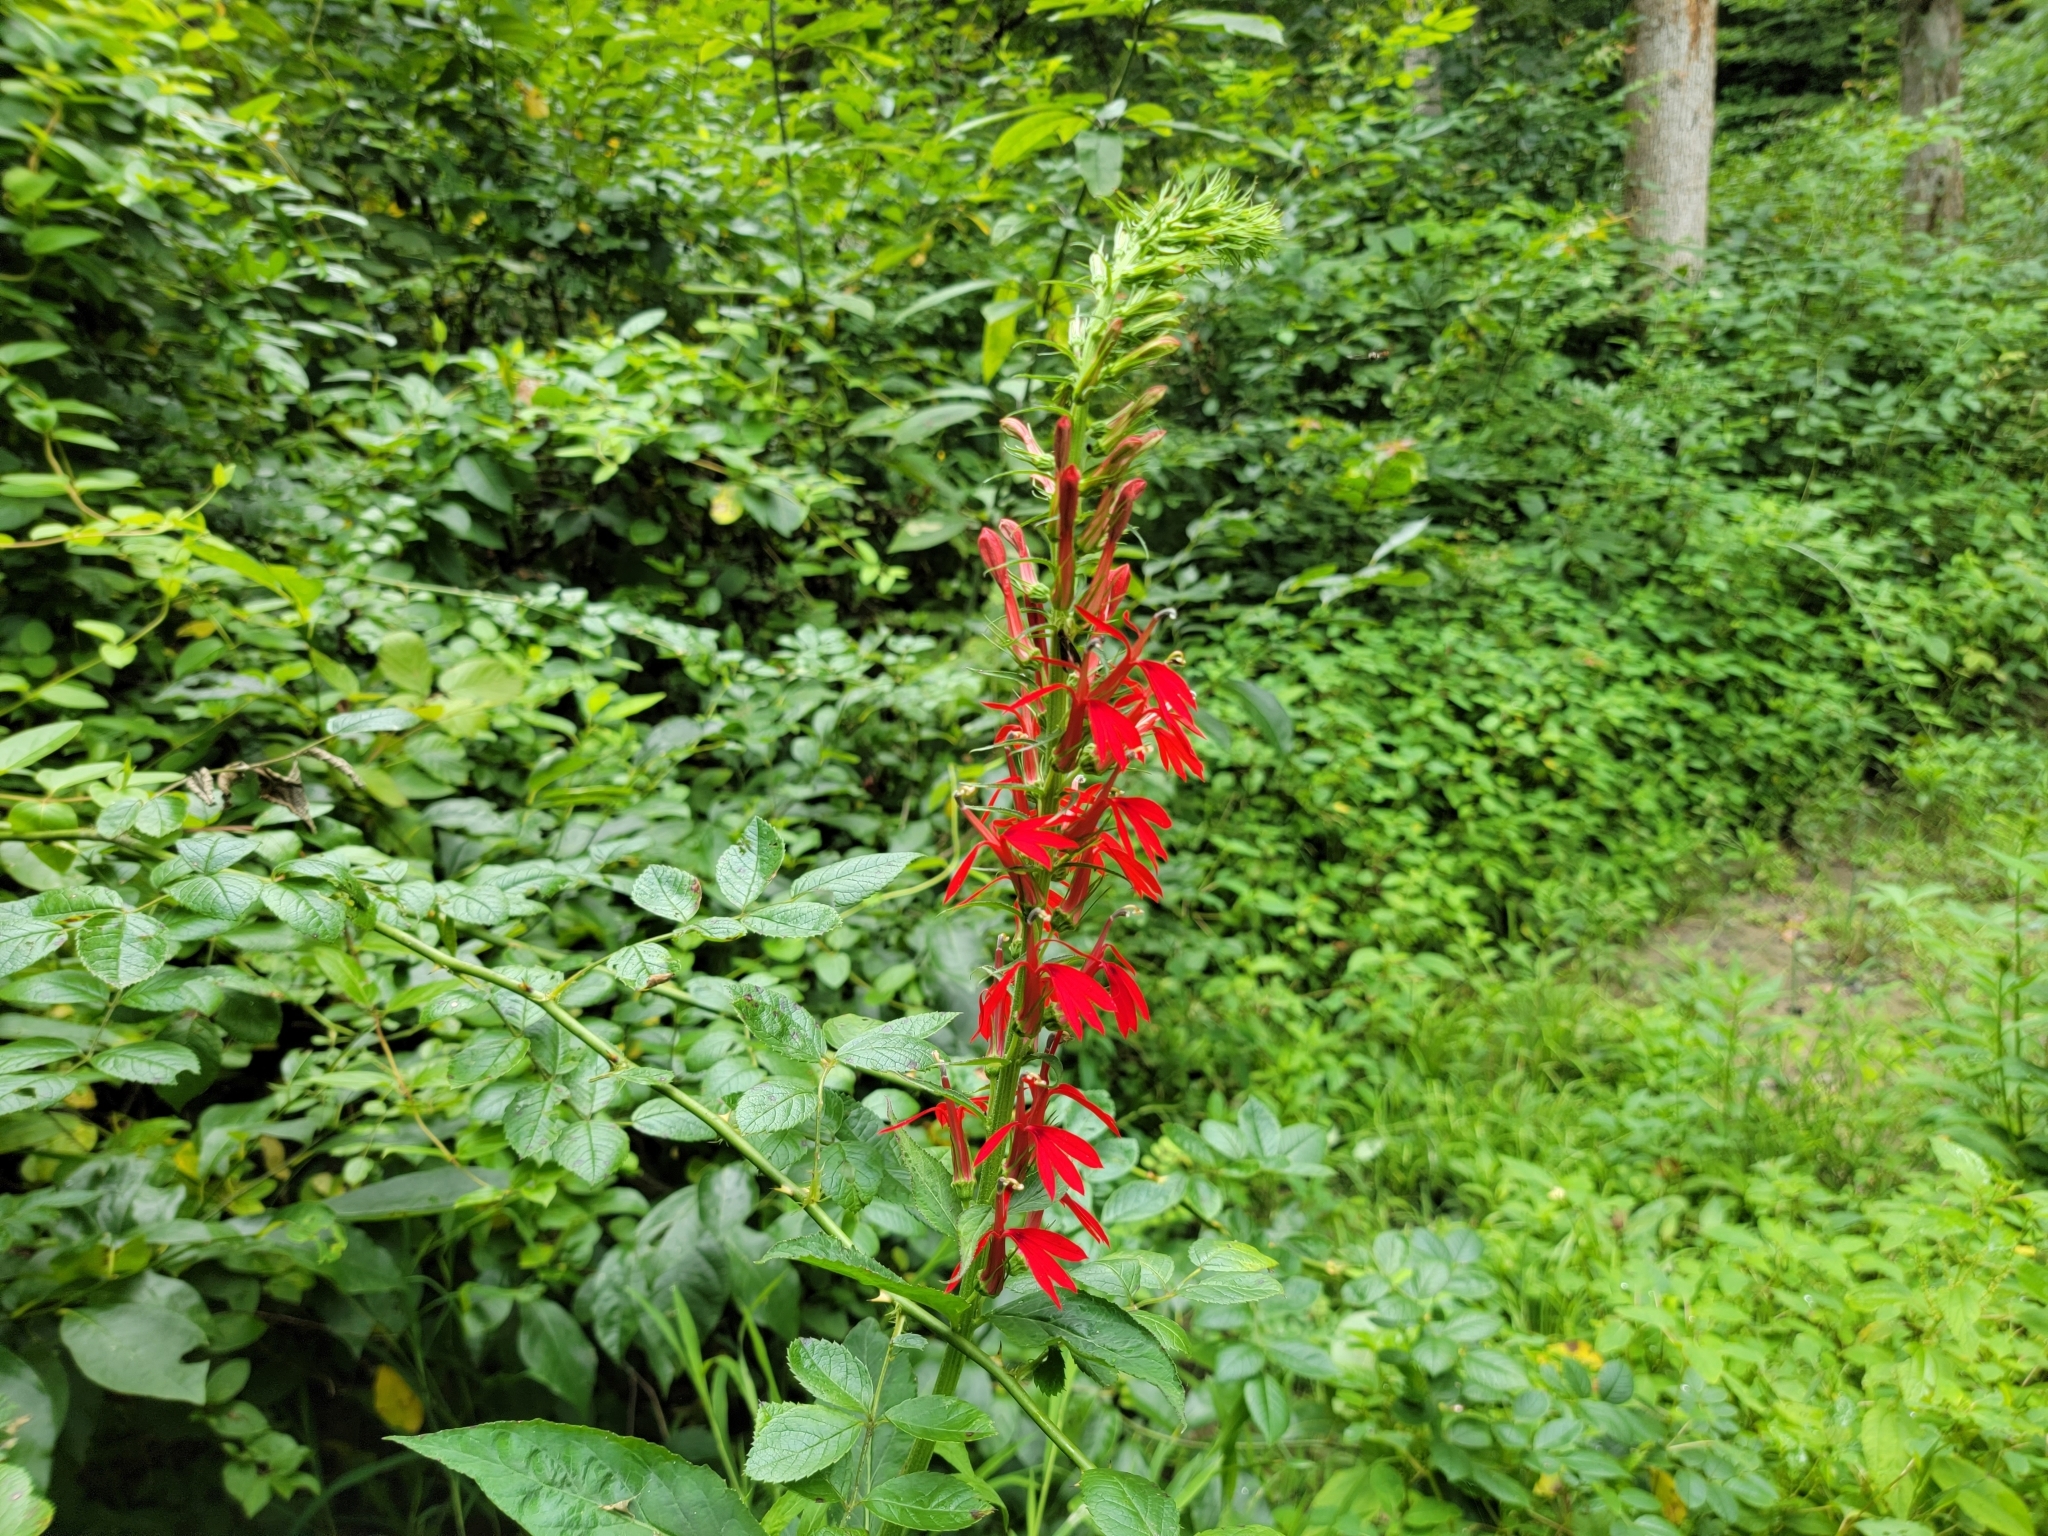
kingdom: Plantae
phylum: Tracheophyta
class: Magnoliopsida
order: Asterales
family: Campanulaceae
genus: Lobelia
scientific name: Lobelia cardinalis
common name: Cardinal flower
